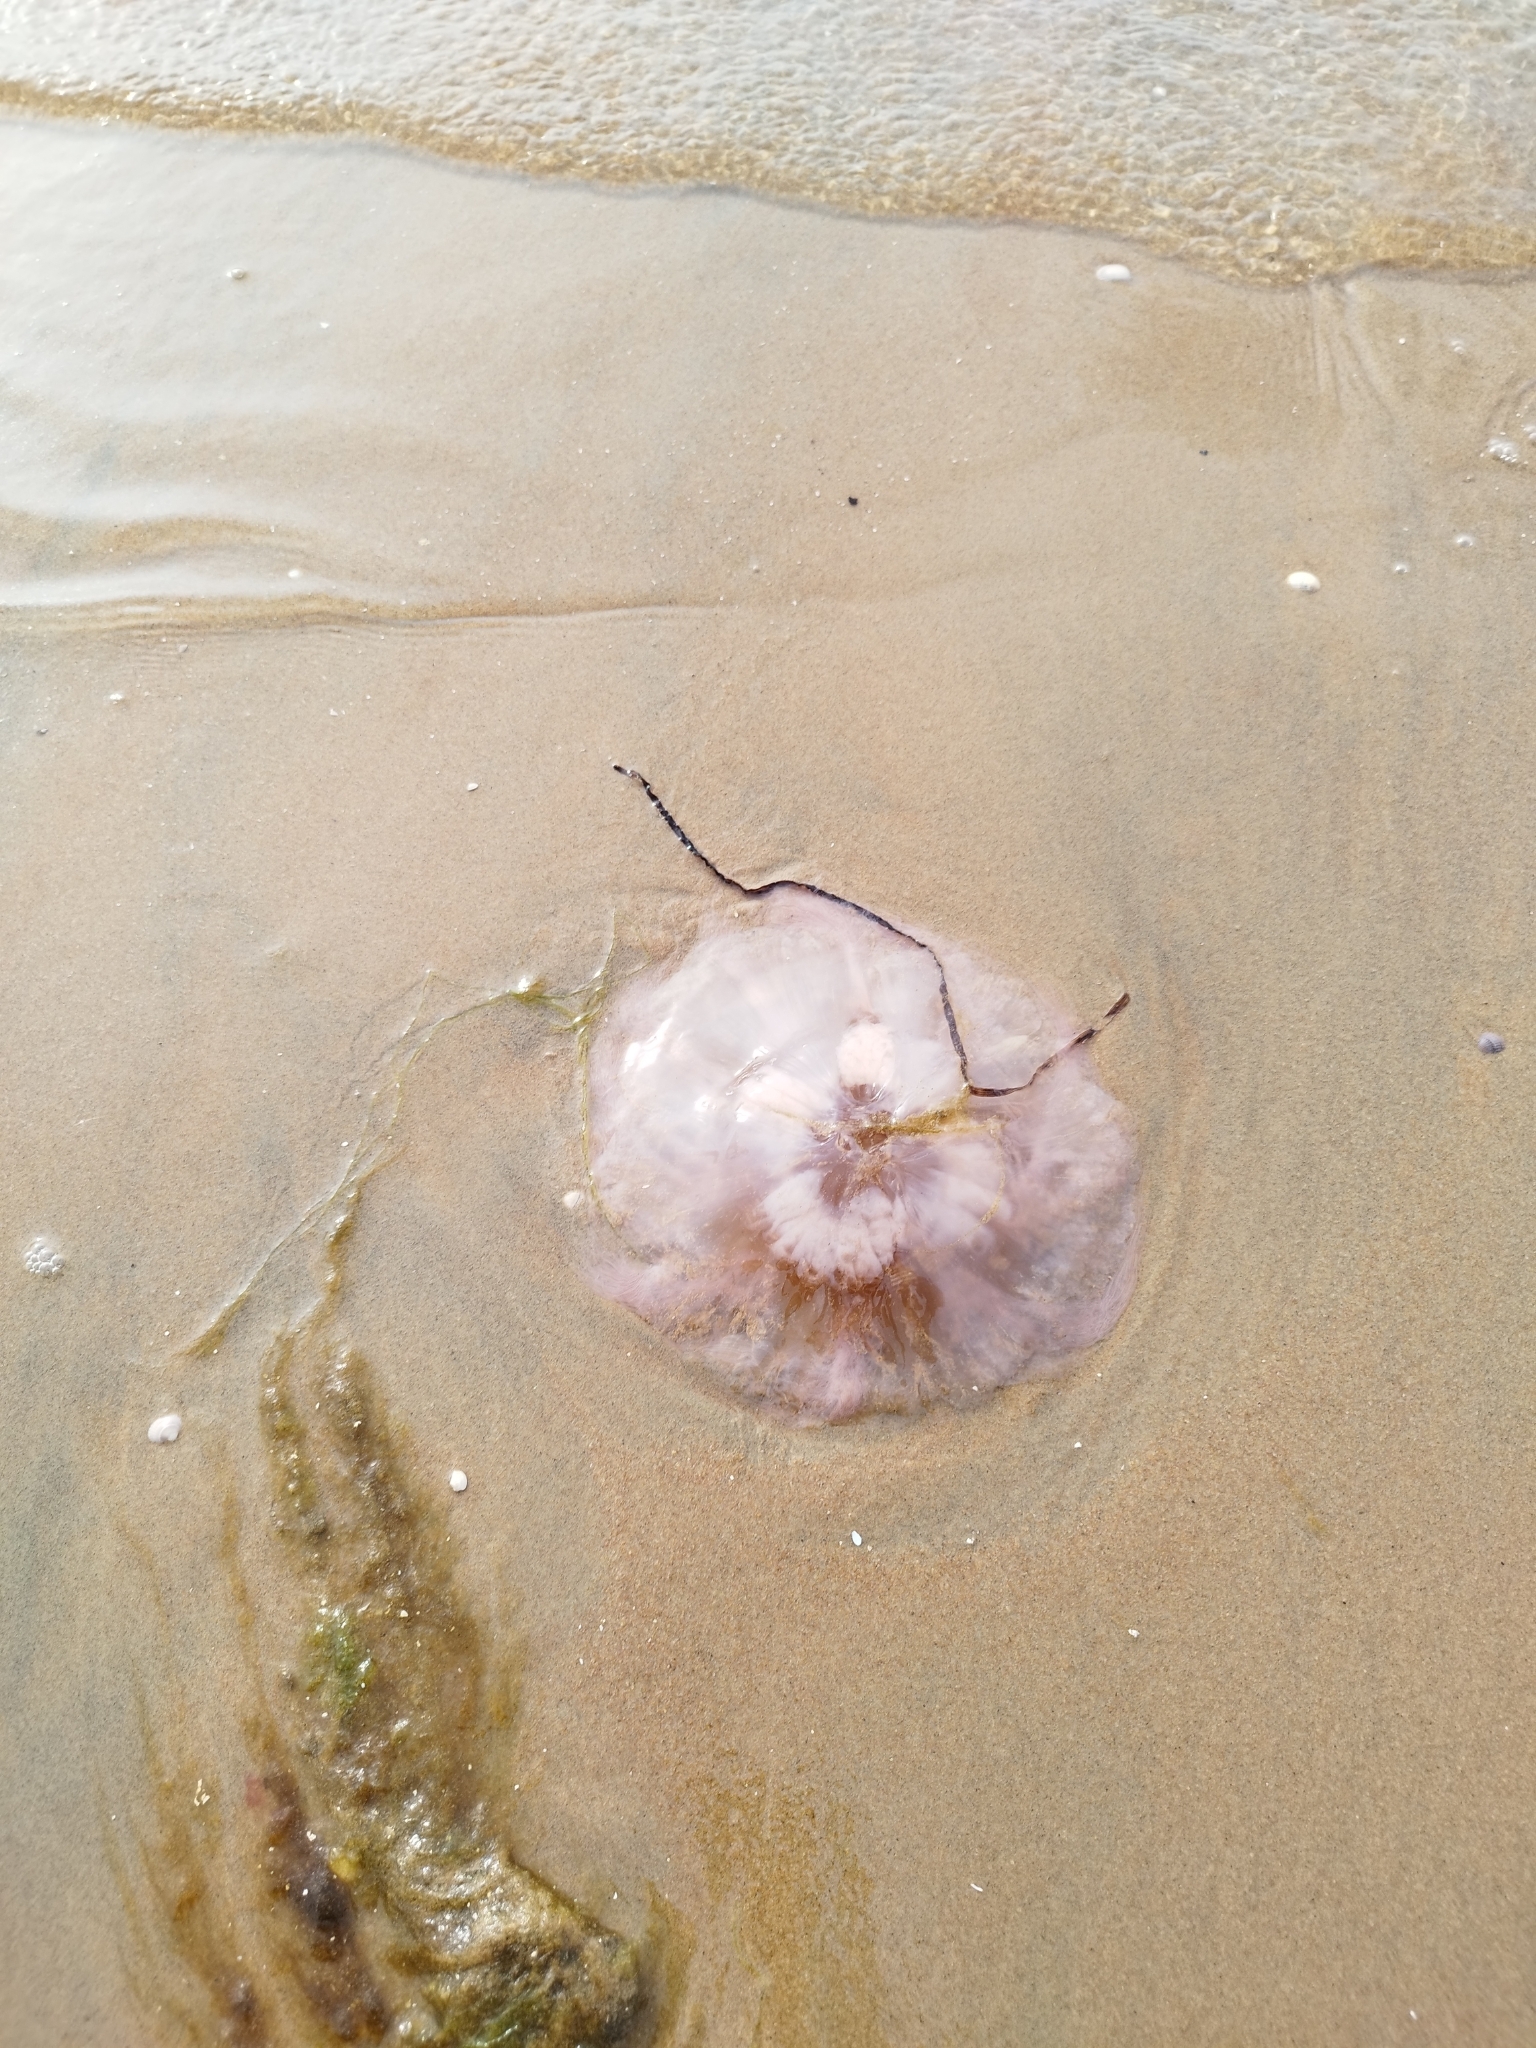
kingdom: Animalia
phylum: Cnidaria
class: Scyphozoa
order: Semaeostomeae
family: Cyaneidae
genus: Cyanea
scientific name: Cyanea capillata
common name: Lion's mane jellyfish
